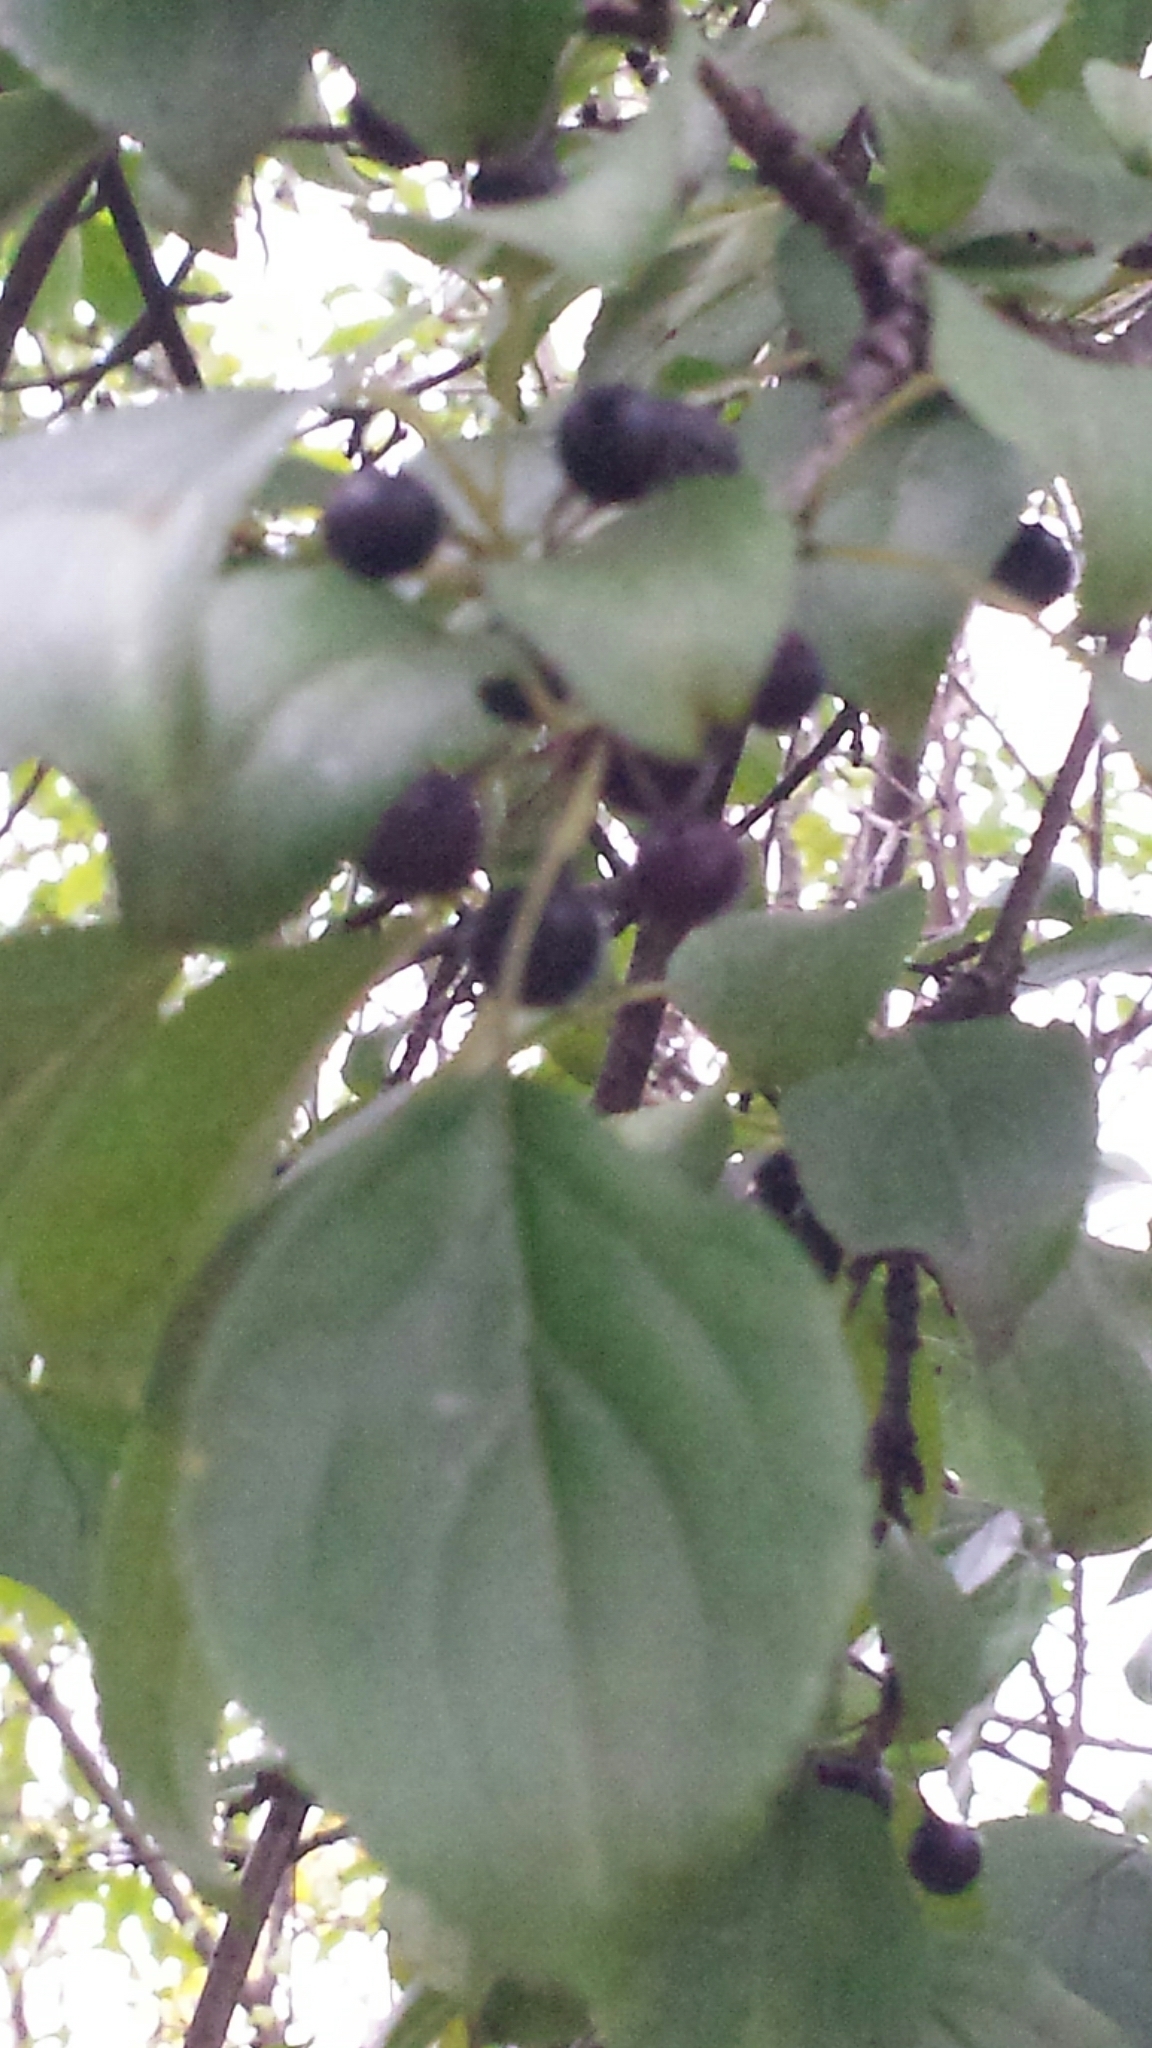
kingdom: Plantae
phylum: Tracheophyta
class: Magnoliopsida
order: Rosales
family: Rhamnaceae
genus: Rhamnus
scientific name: Rhamnus cathartica
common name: Common buckthorn
